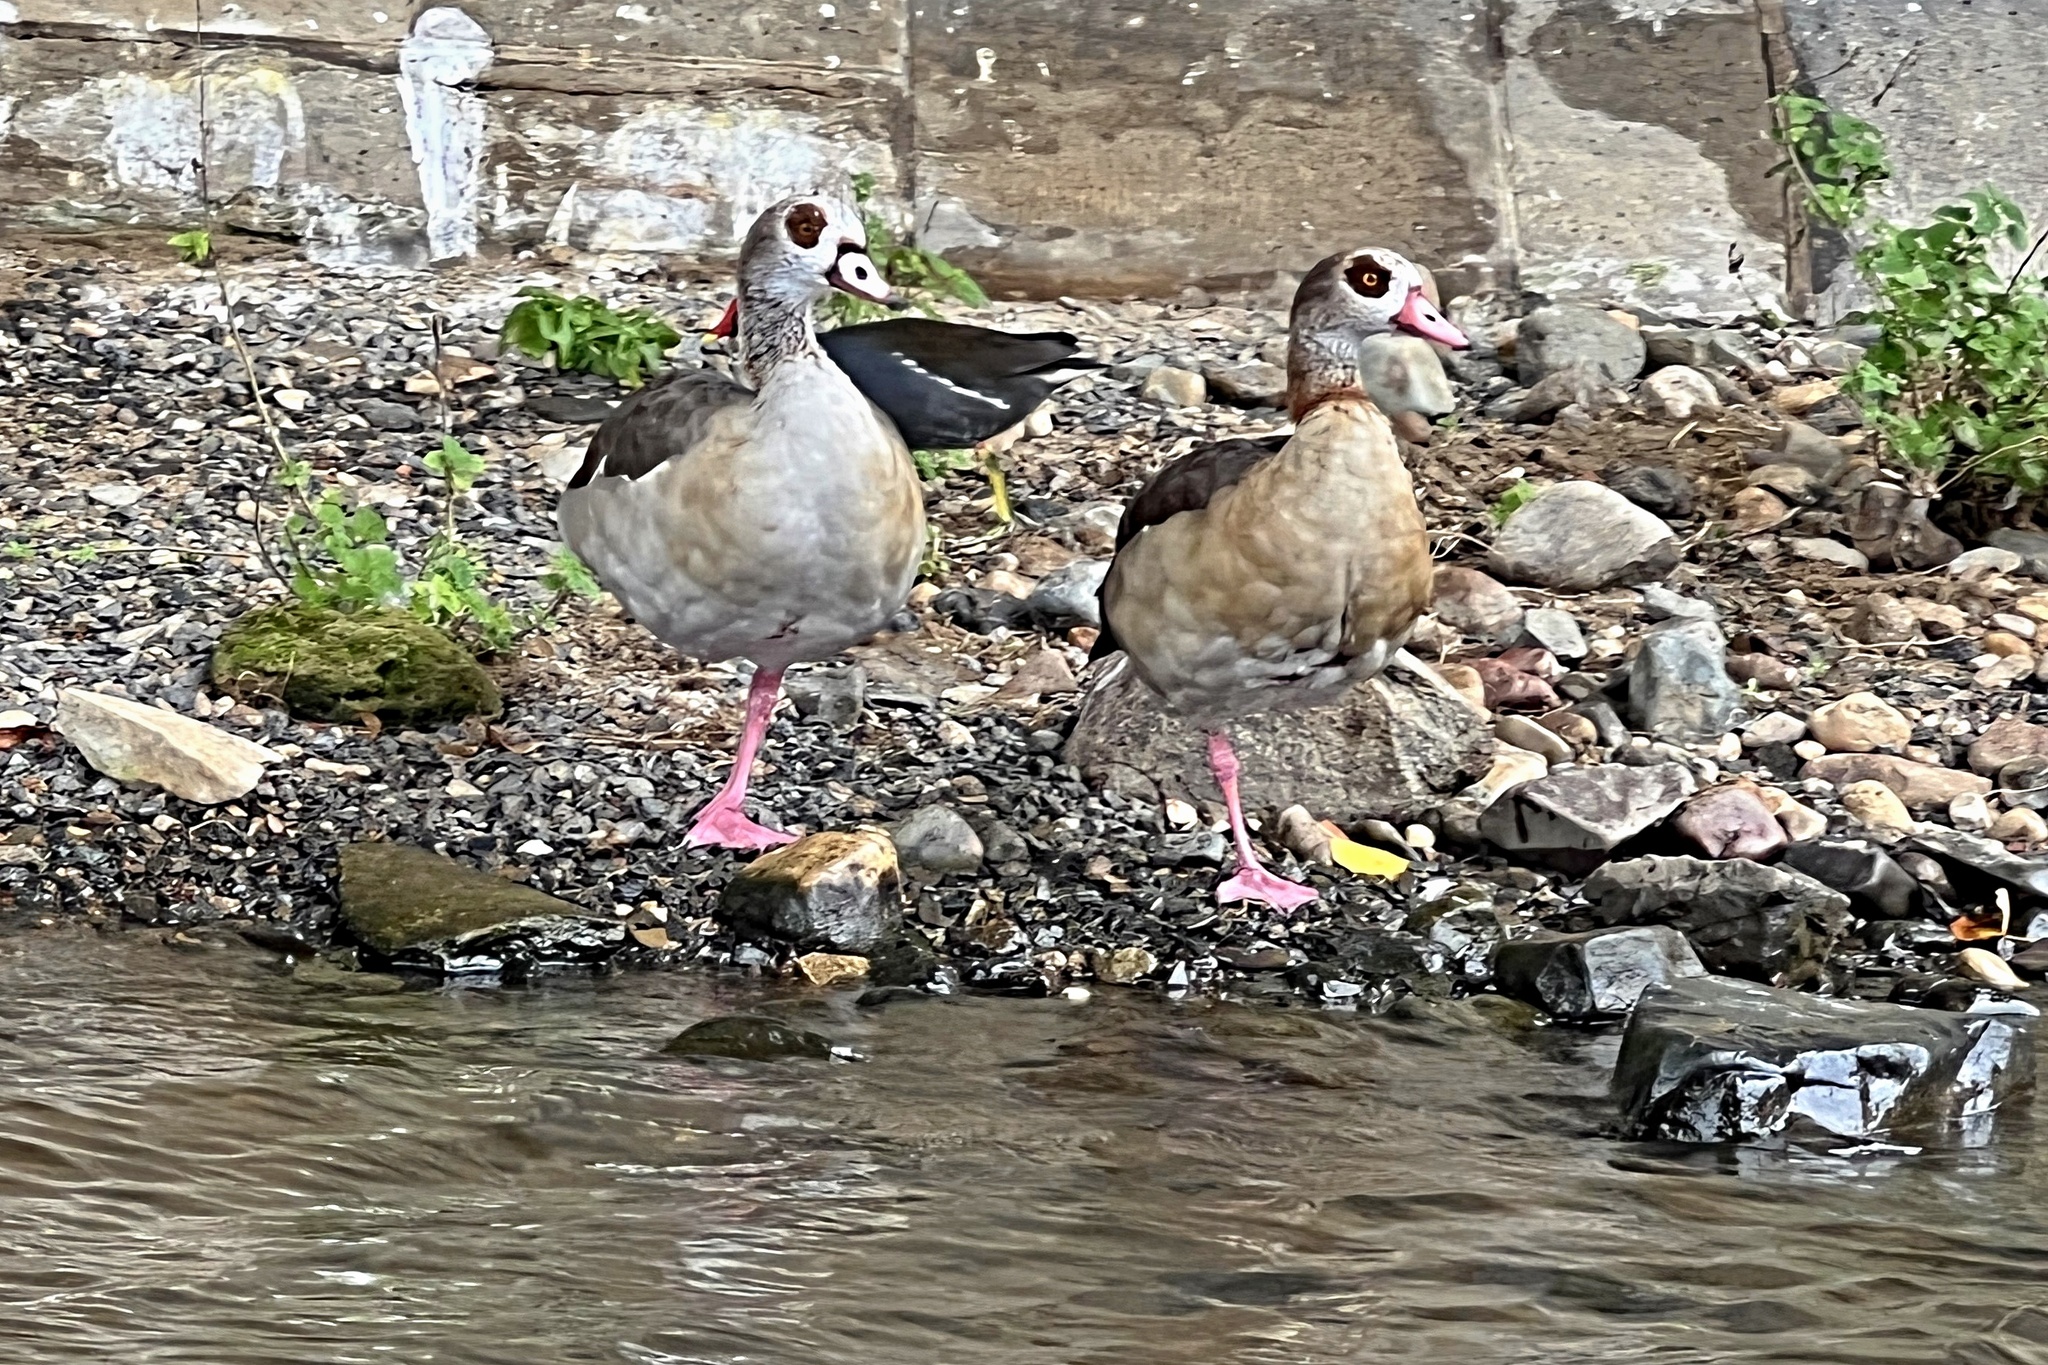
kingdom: Animalia
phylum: Chordata
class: Aves
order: Anseriformes
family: Anatidae
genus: Alopochen
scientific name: Alopochen aegyptiaca
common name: Egyptian goose
